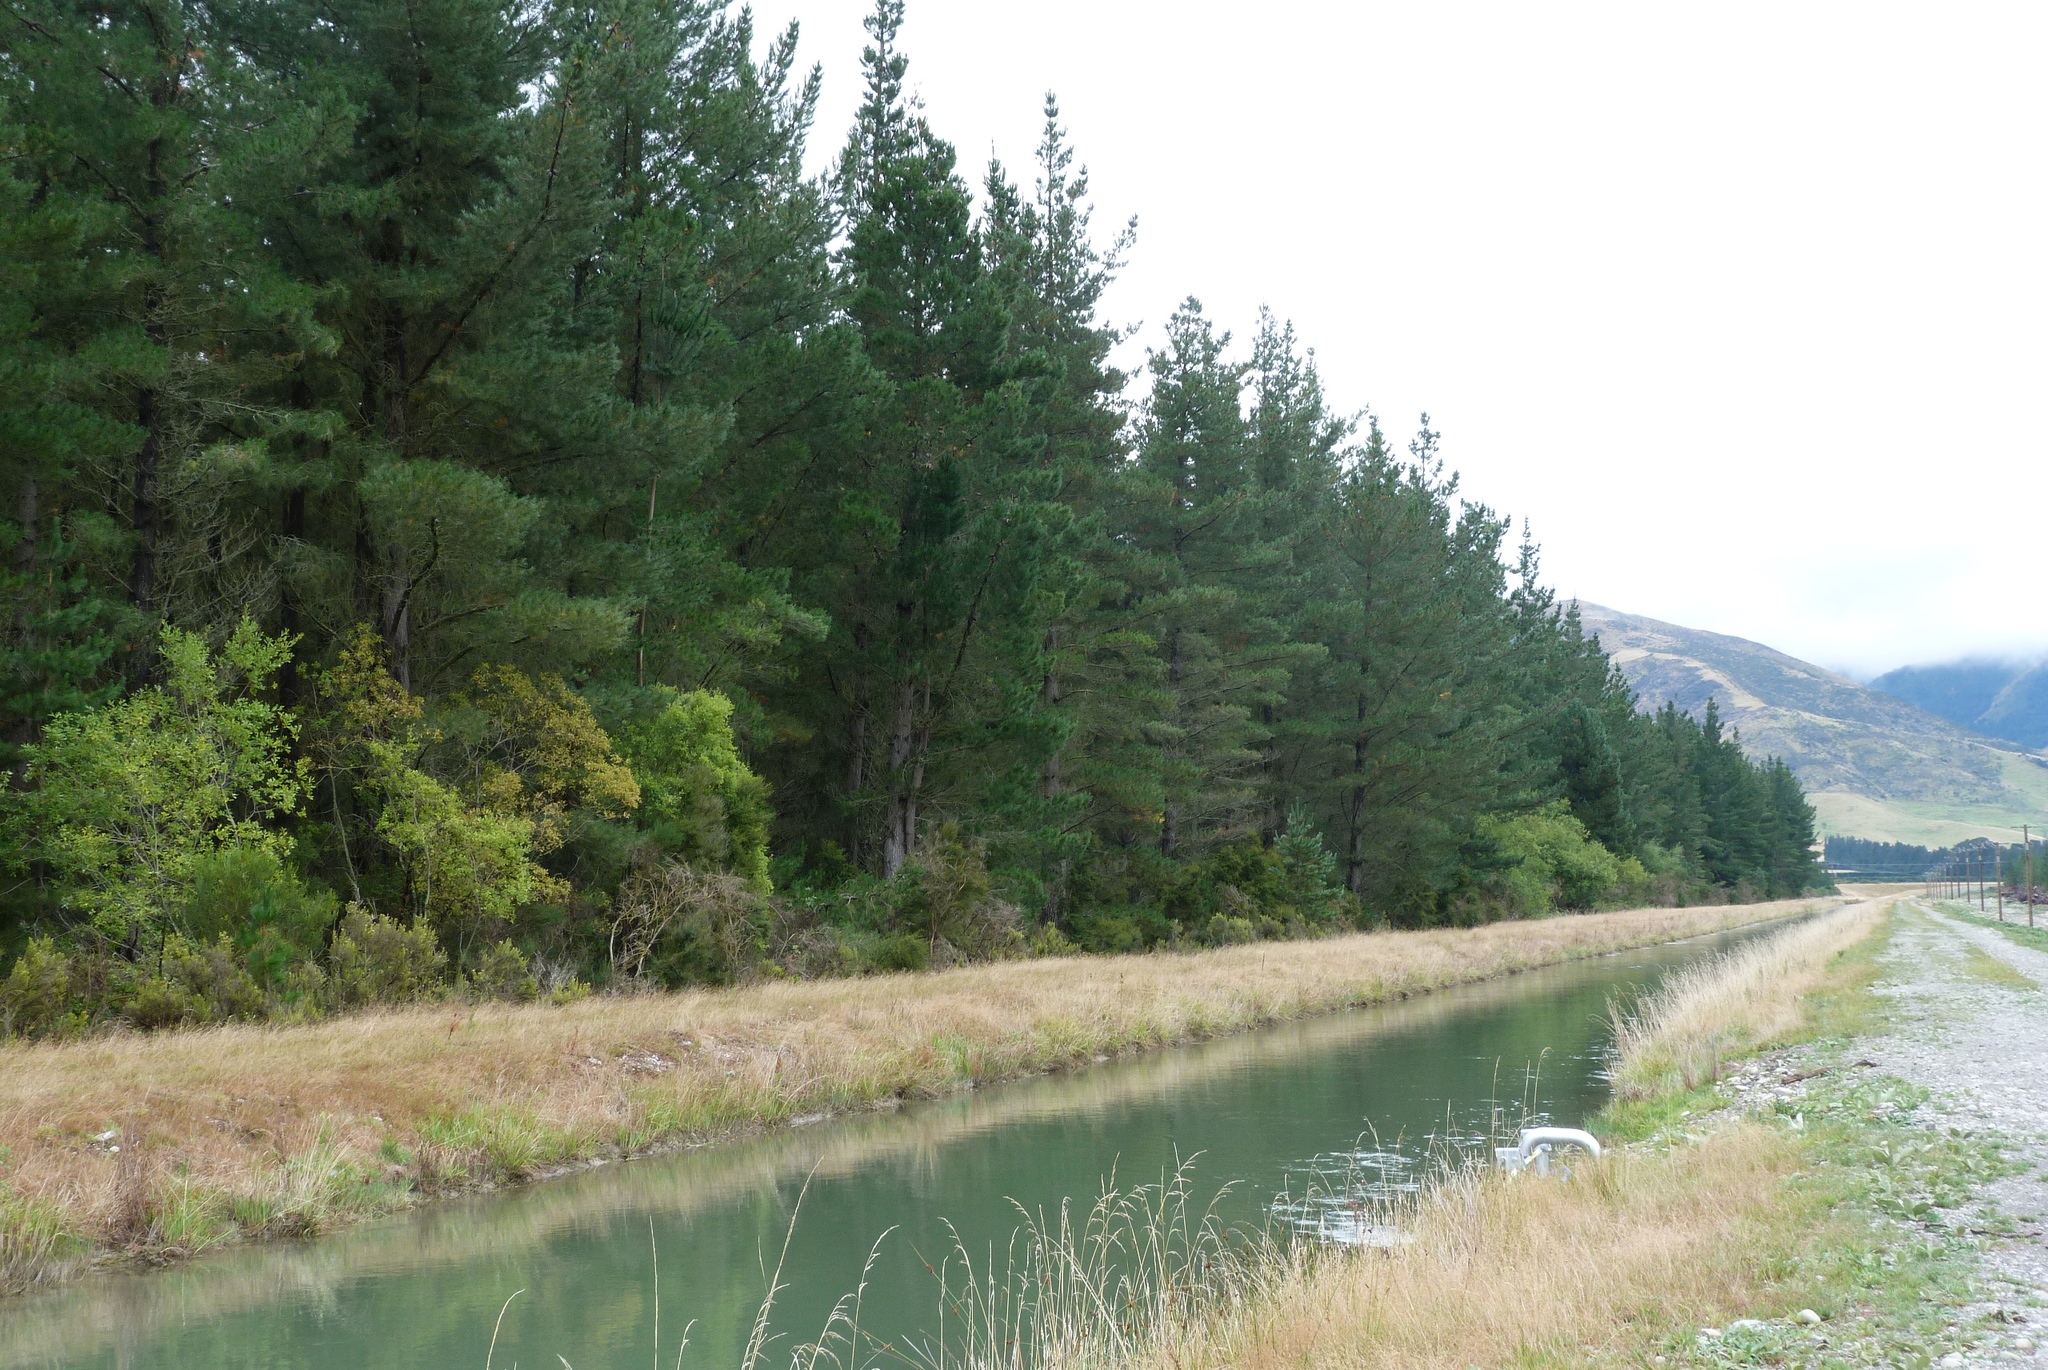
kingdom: Plantae
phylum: Tracheophyta
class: Magnoliopsida
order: Asterales
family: Asteraceae
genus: Ozothamnus
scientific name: Ozothamnus leptophyllus
